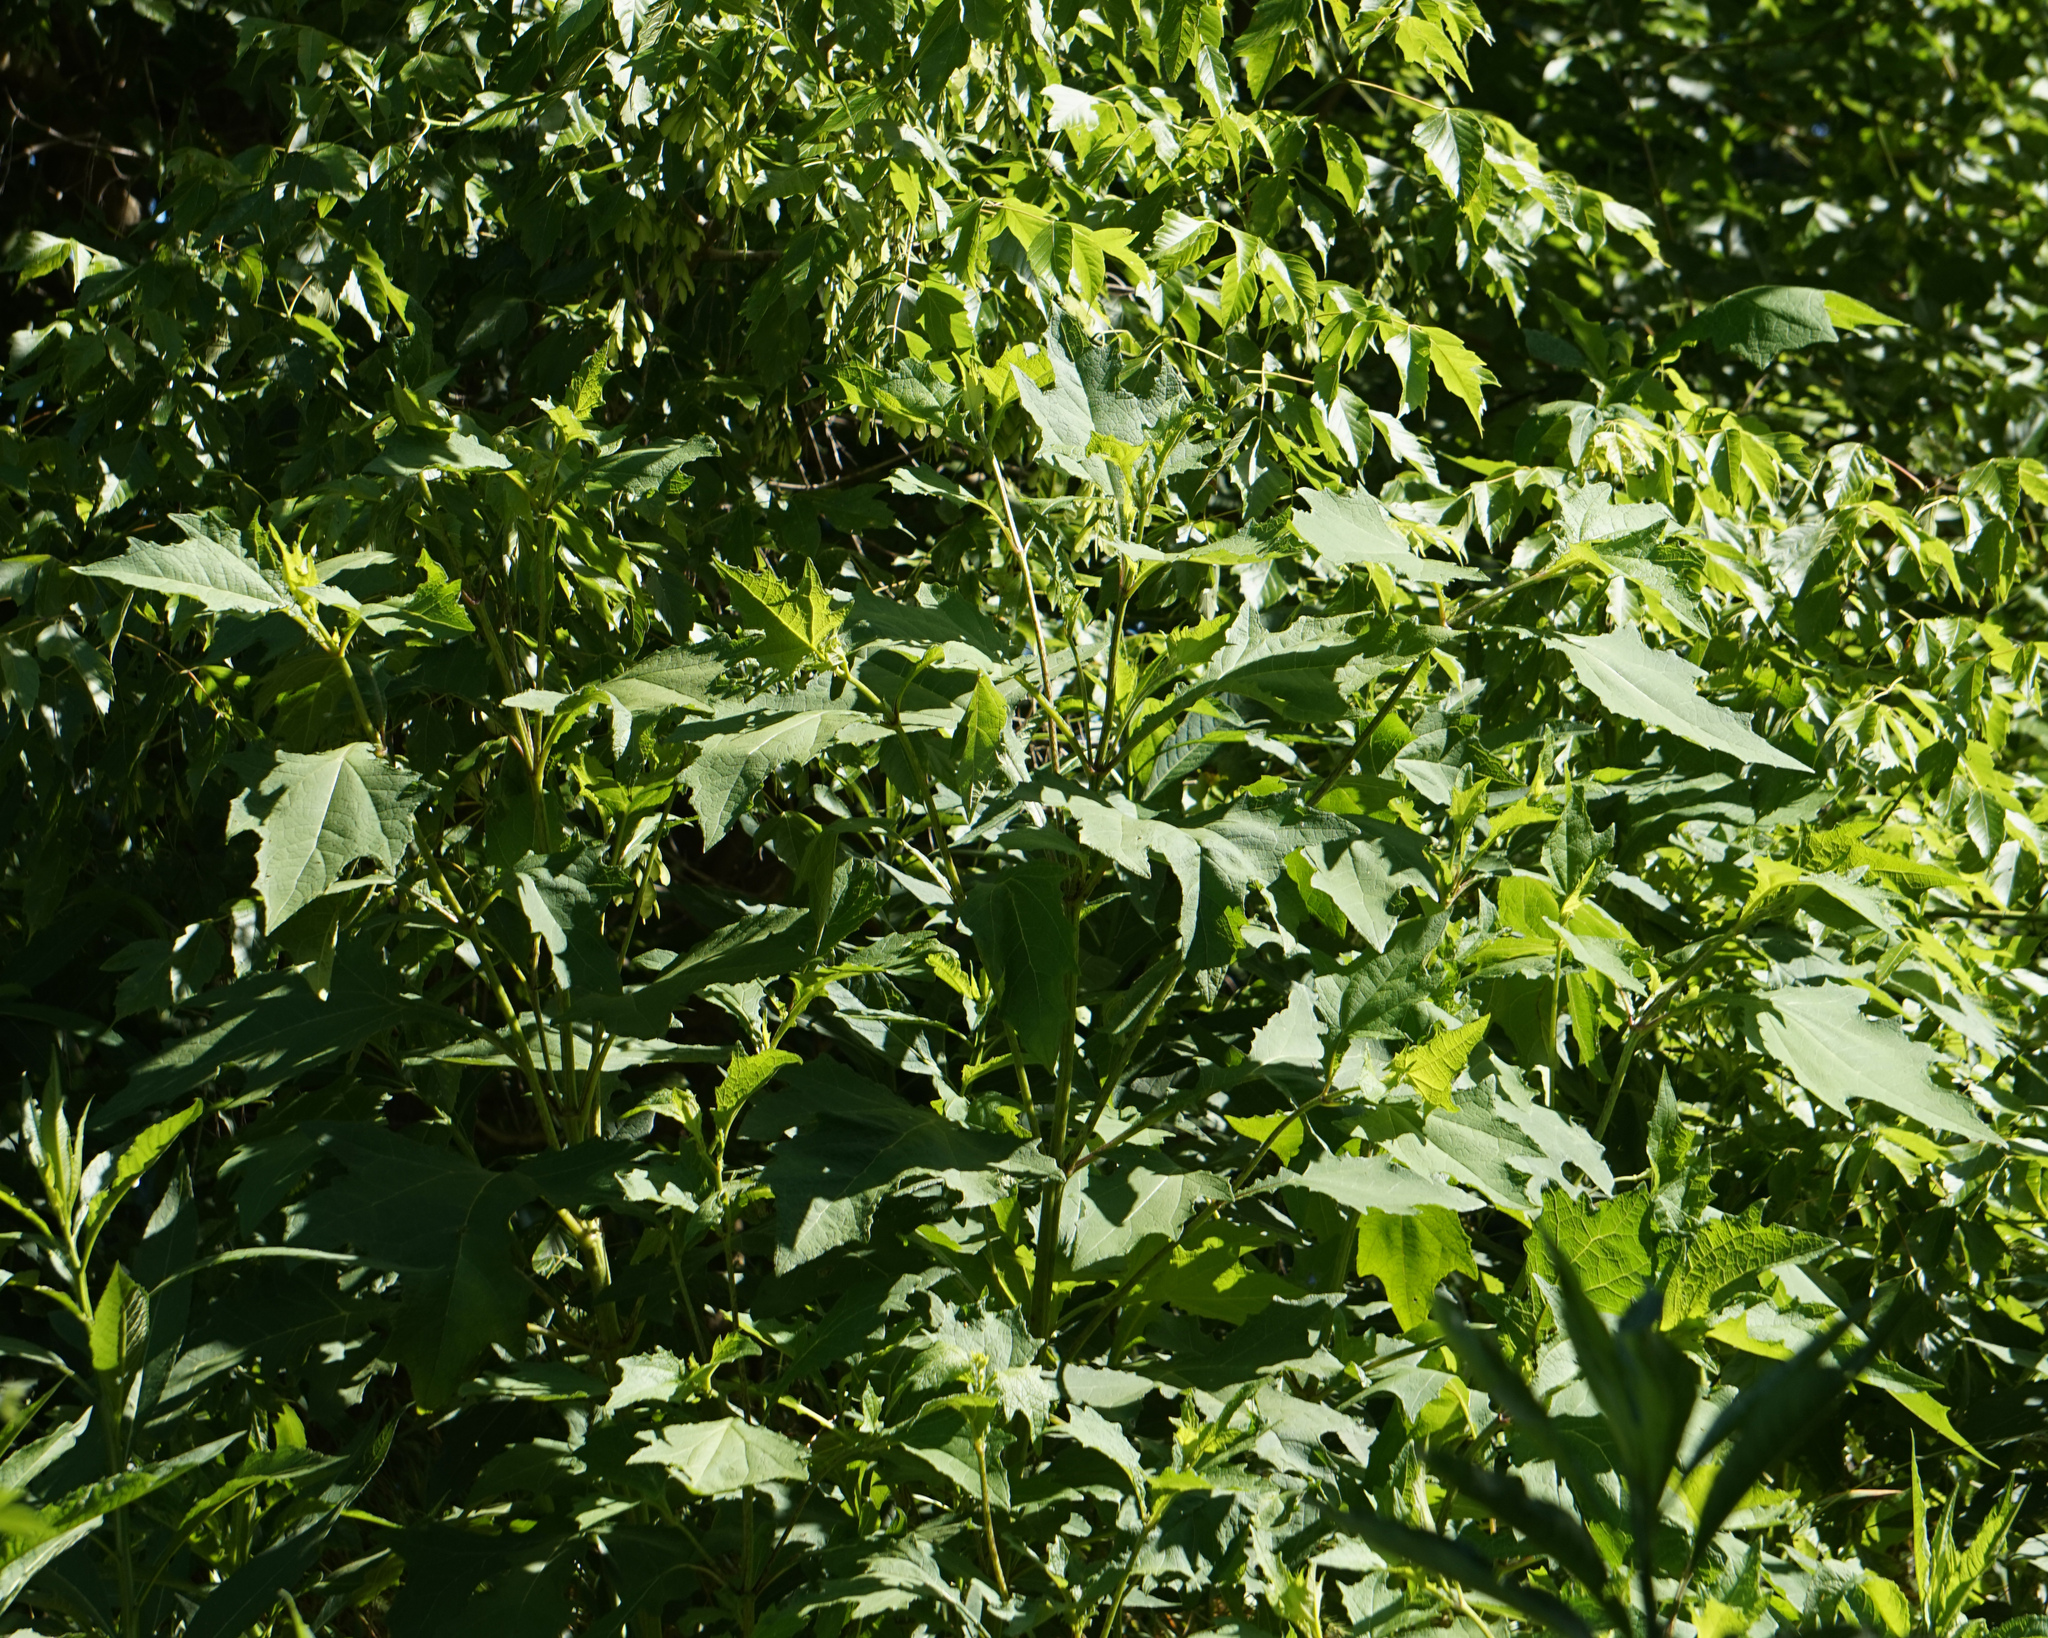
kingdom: Plantae
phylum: Tracheophyta
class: Magnoliopsida
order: Asterales
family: Asteraceae
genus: Smallanthus
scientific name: Smallanthus uvedalia
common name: Bear's-foot
